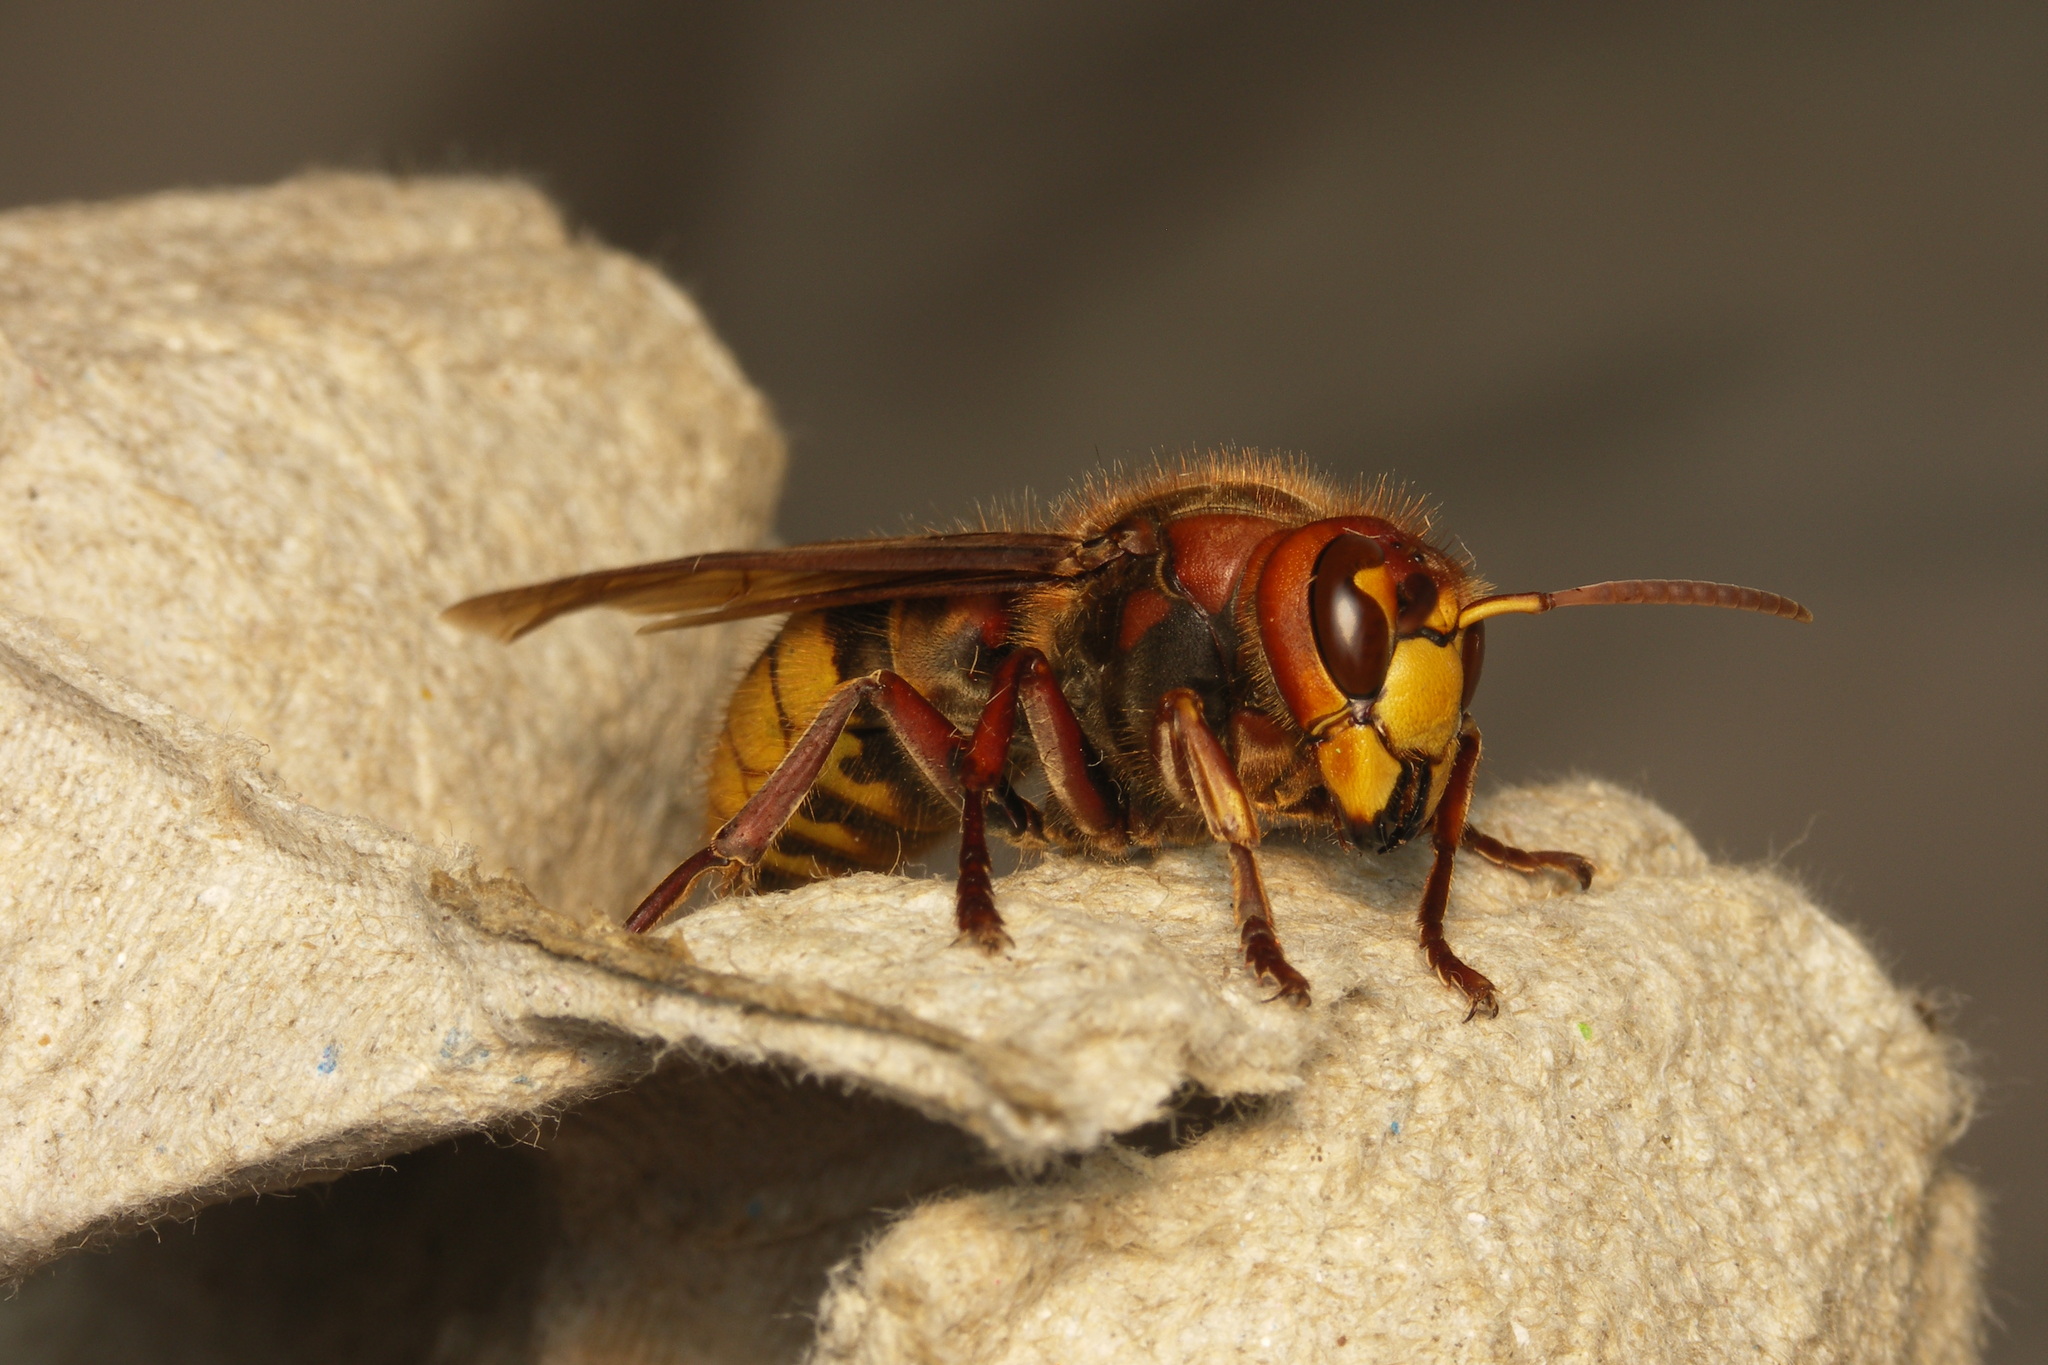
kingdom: Animalia
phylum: Arthropoda
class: Insecta
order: Hymenoptera
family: Vespidae
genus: Vespa
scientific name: Vespa crabro
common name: Hornet
